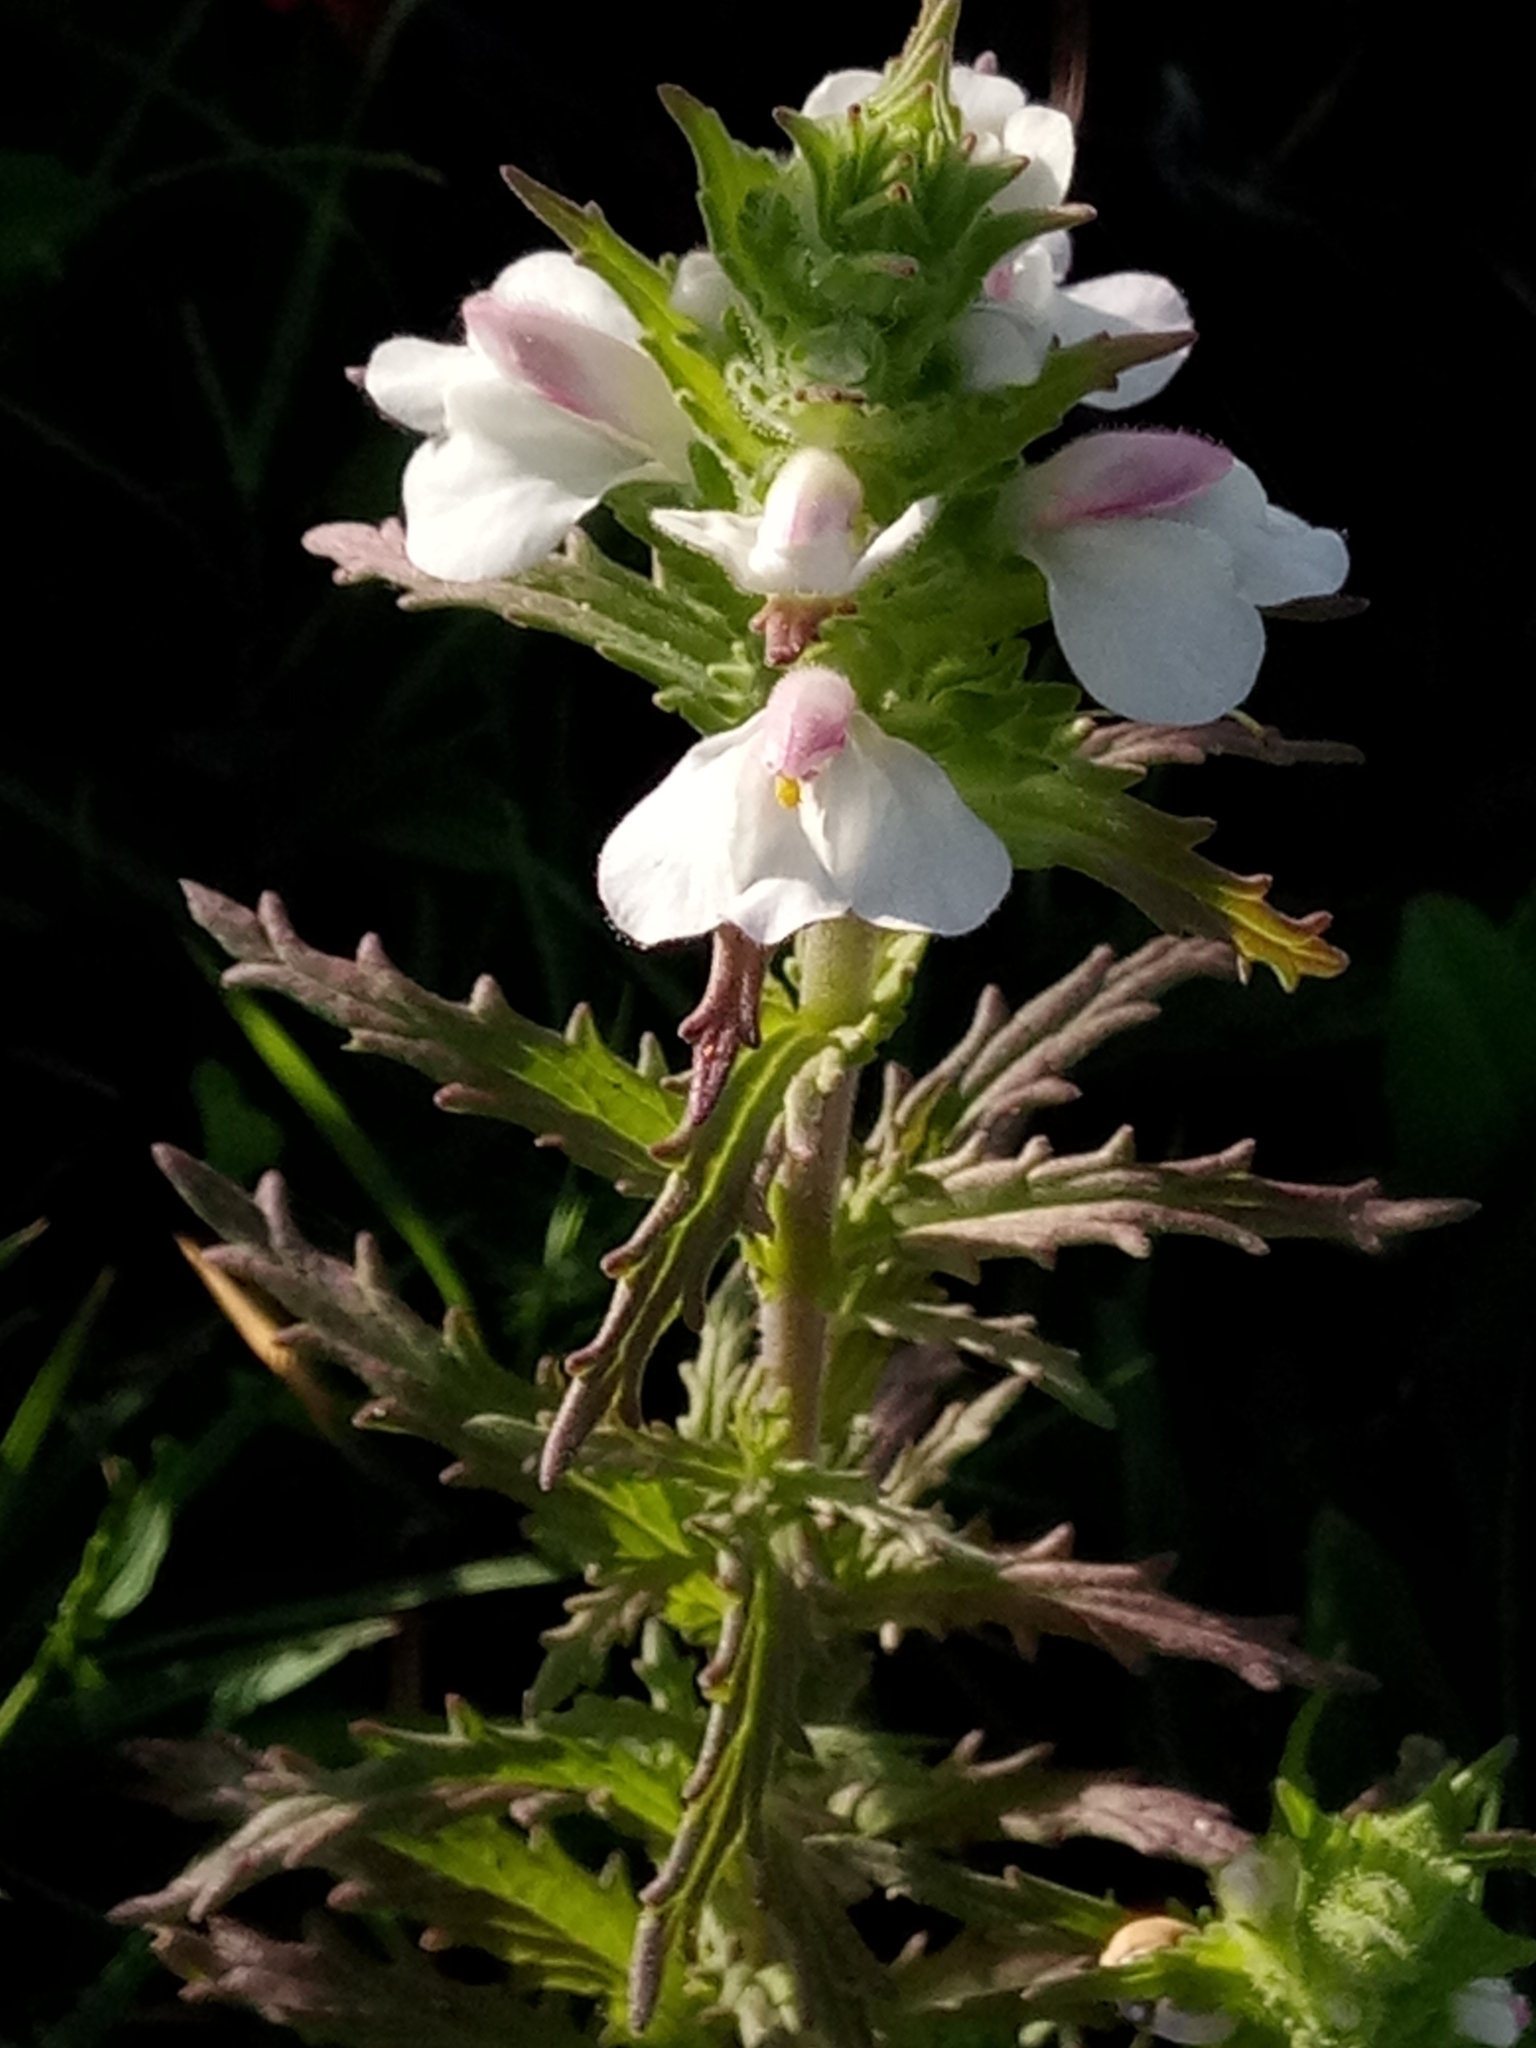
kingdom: Plantae
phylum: Tracheophyta
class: Magnoliopsida
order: Lamiales
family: Orobanchaceae
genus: Bellardia
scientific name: Bellardia trixago
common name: Mediterranean lineseed
